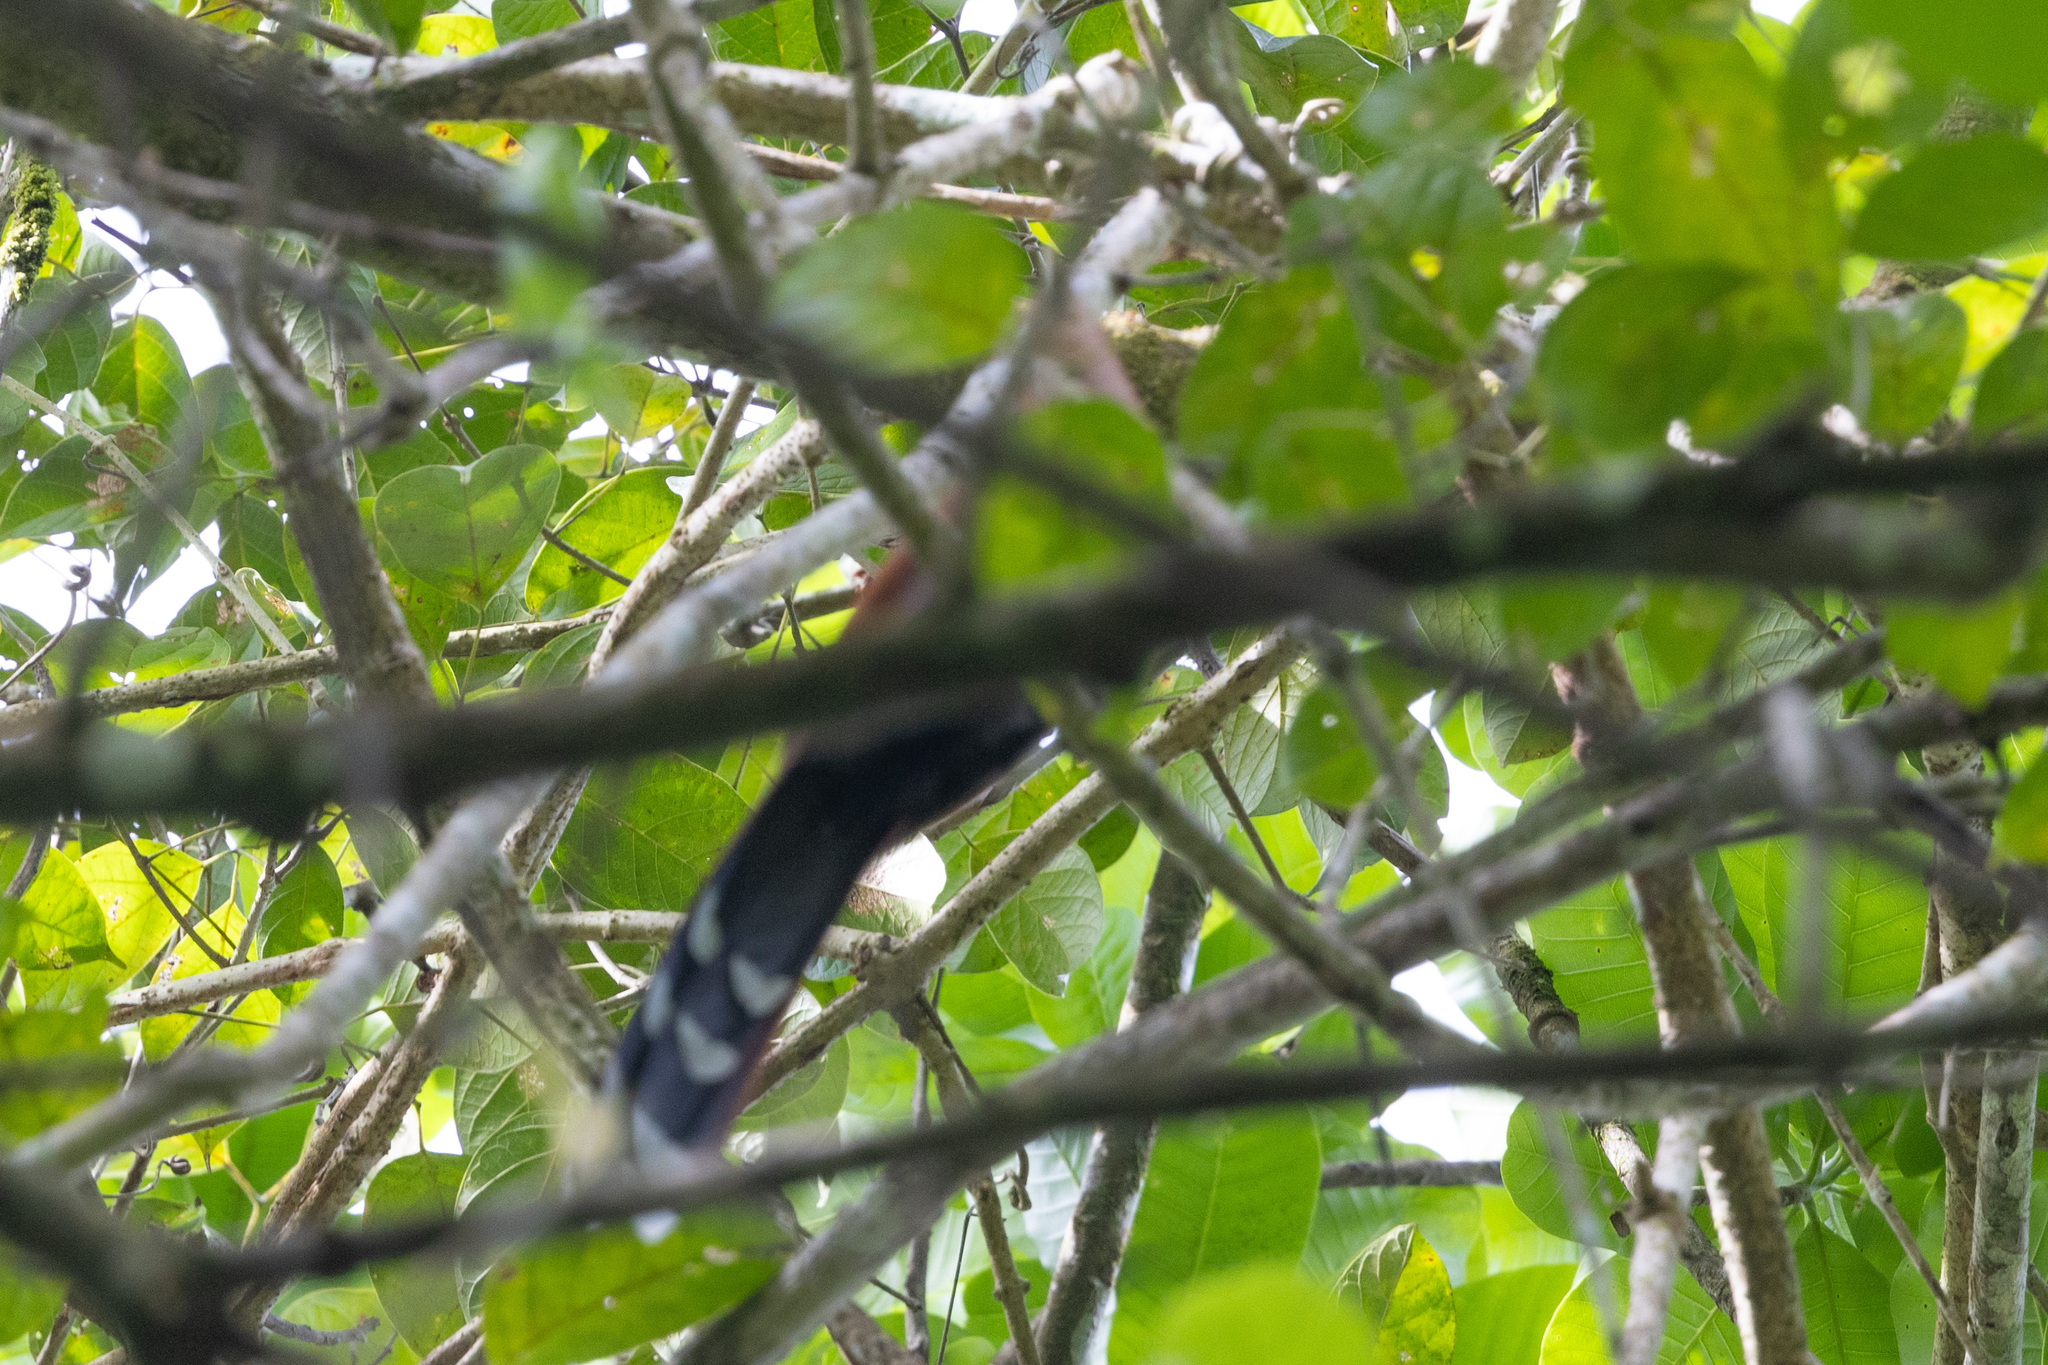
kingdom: Animalia
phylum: Chordata
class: Aves
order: Cuculiformes
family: Cuculidae
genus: Piaya
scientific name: Piaya cayana
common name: Squirrel cuckoo
